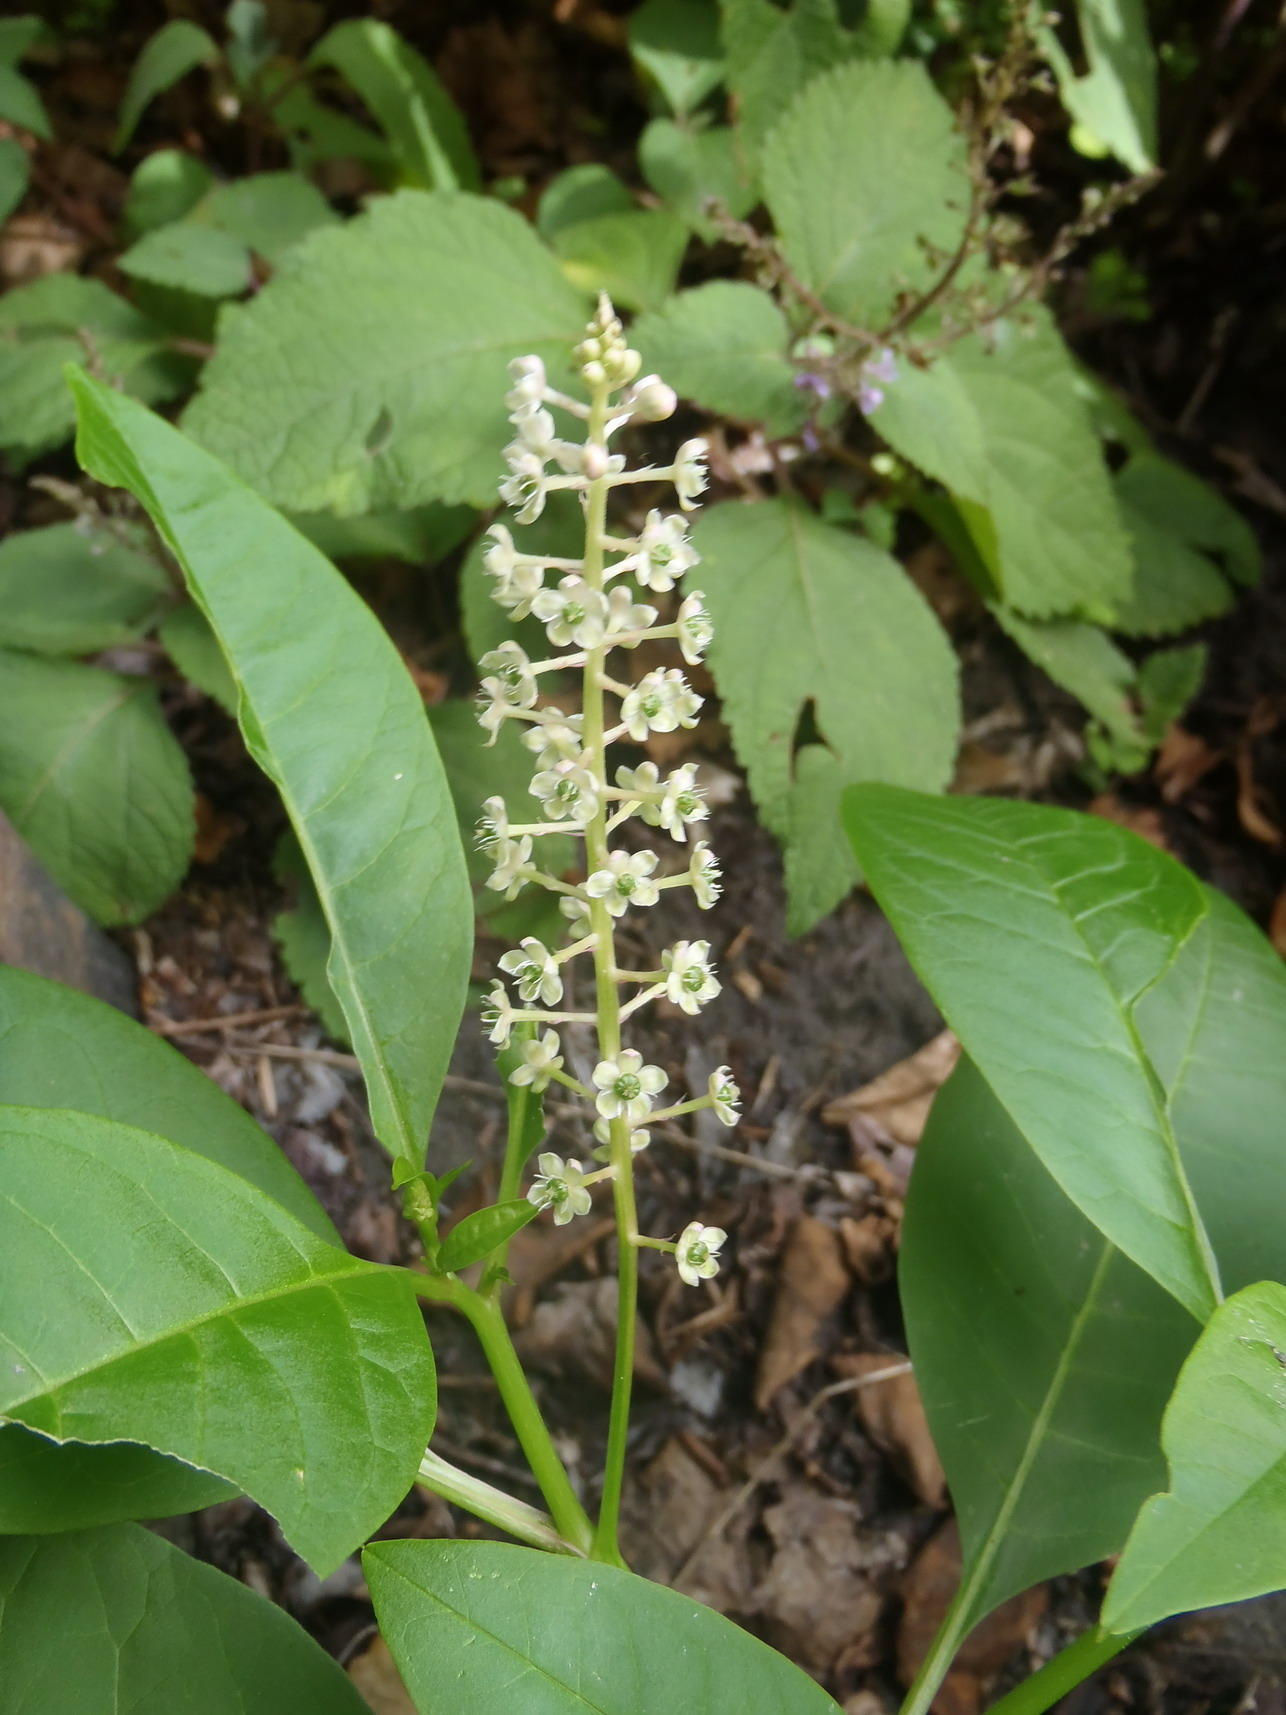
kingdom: Plantae
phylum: Tracheophyta
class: Magnoliopsida
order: Caryophyllales
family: Phytolaccaceae
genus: Phytolacca
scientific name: Phytolacca americana
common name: American pokeweed
